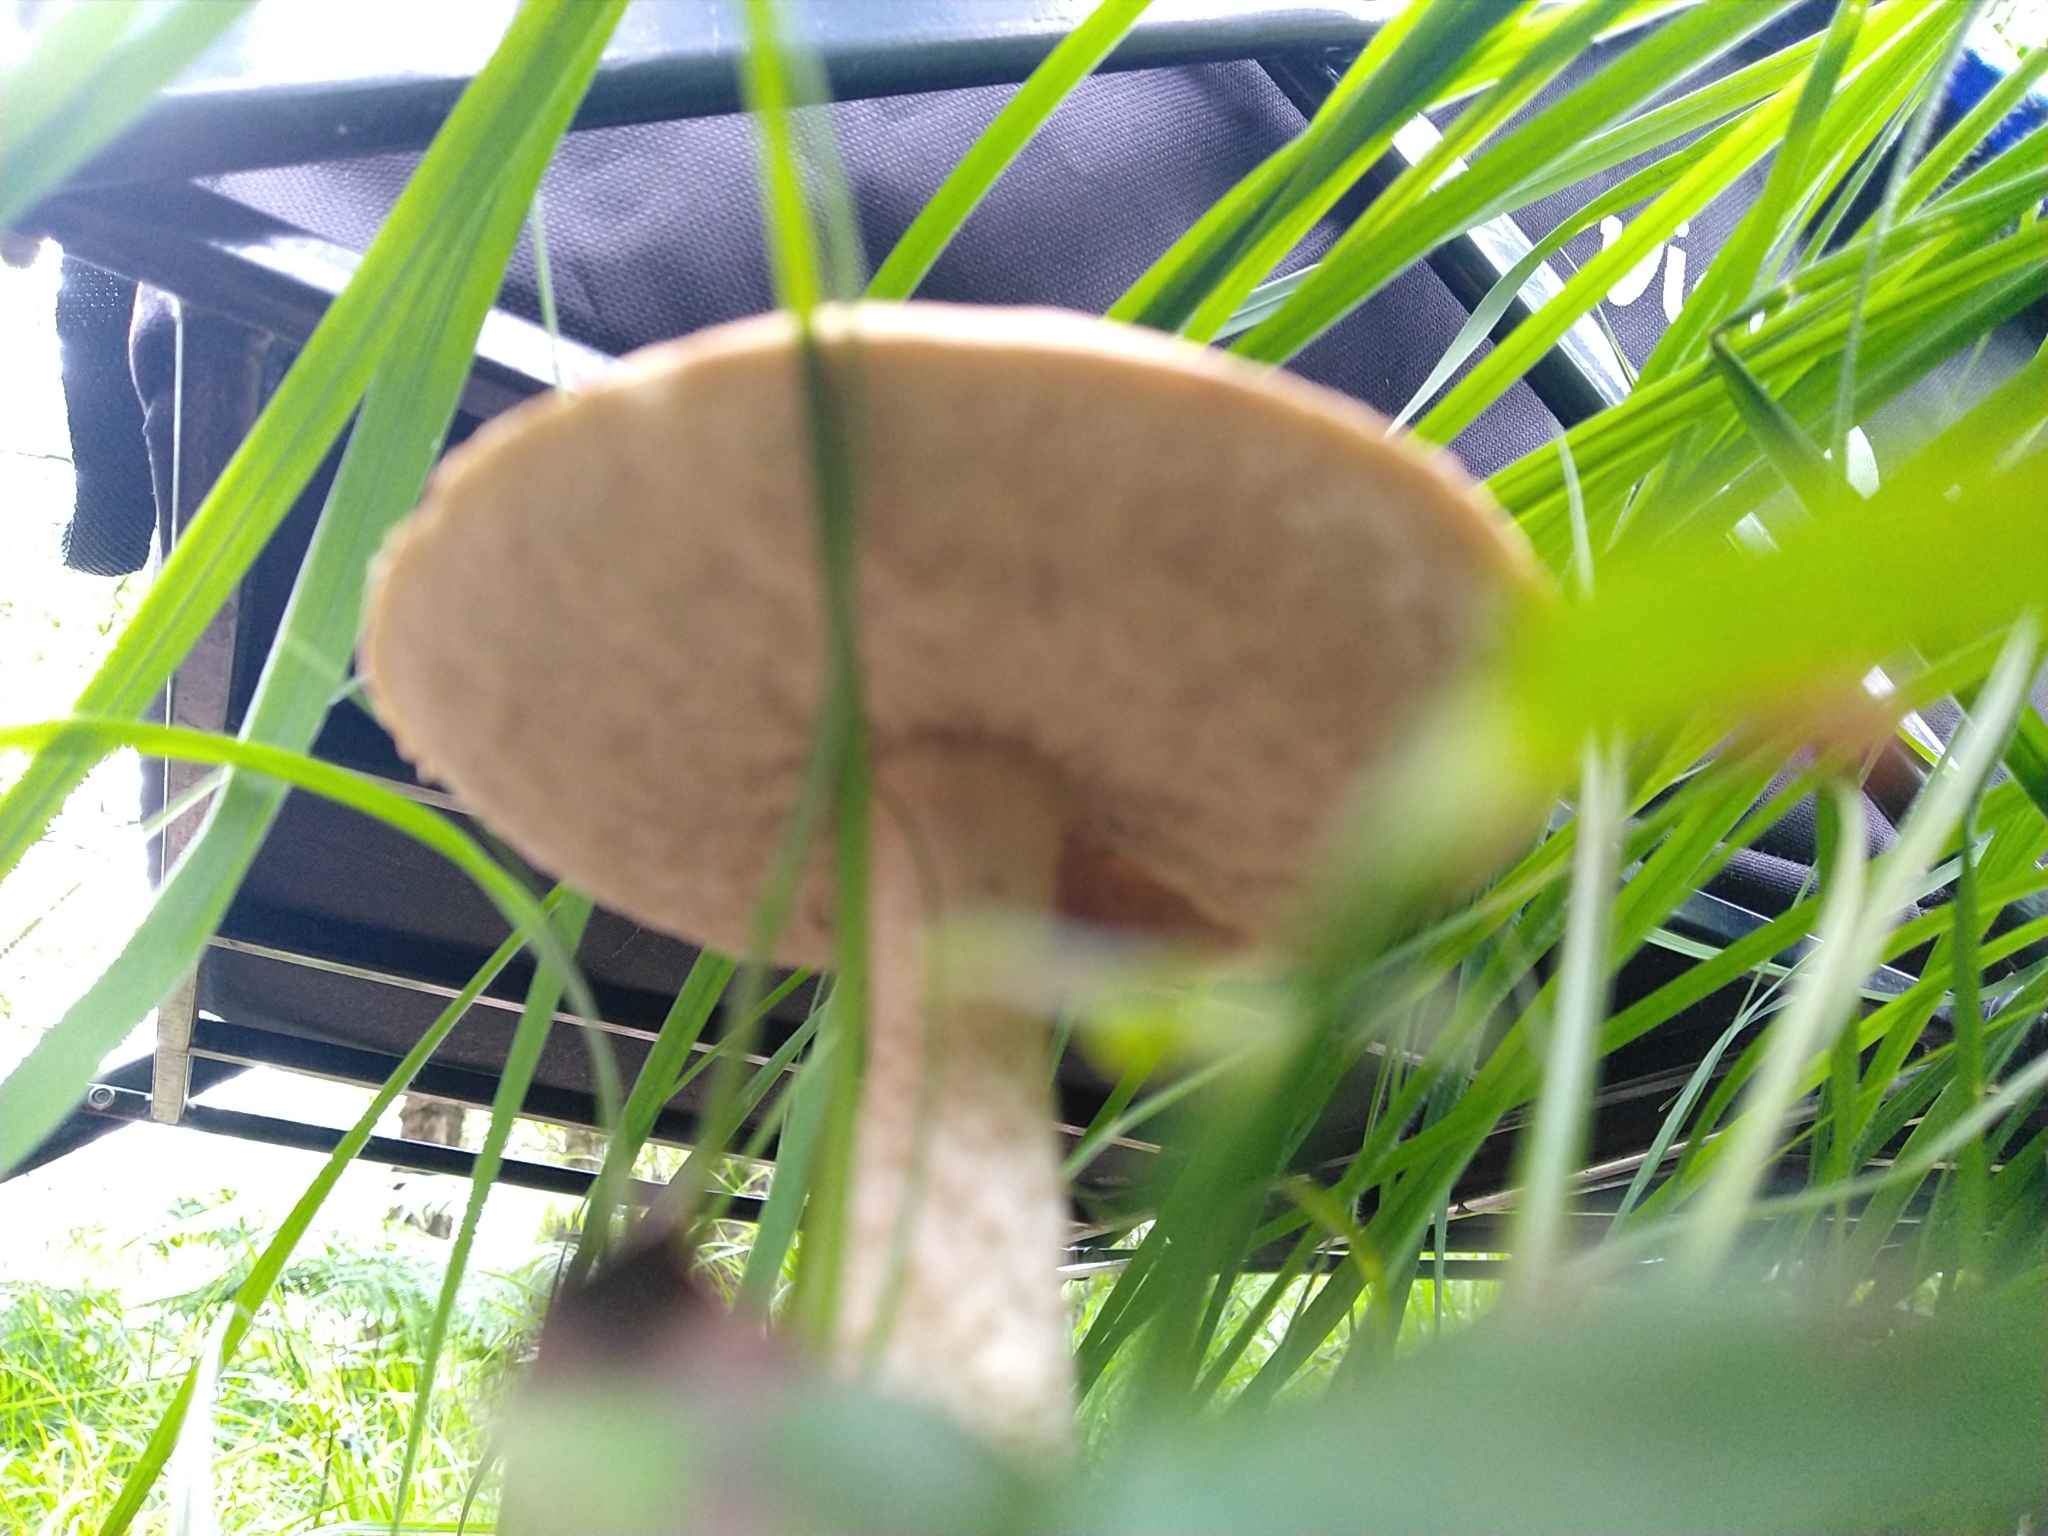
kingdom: Fungi
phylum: Basidiomycota
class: Agaricomycetes
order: Boletales
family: Boletaceae
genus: Leccinum
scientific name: Leccinum holopus
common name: Ghost bolete
